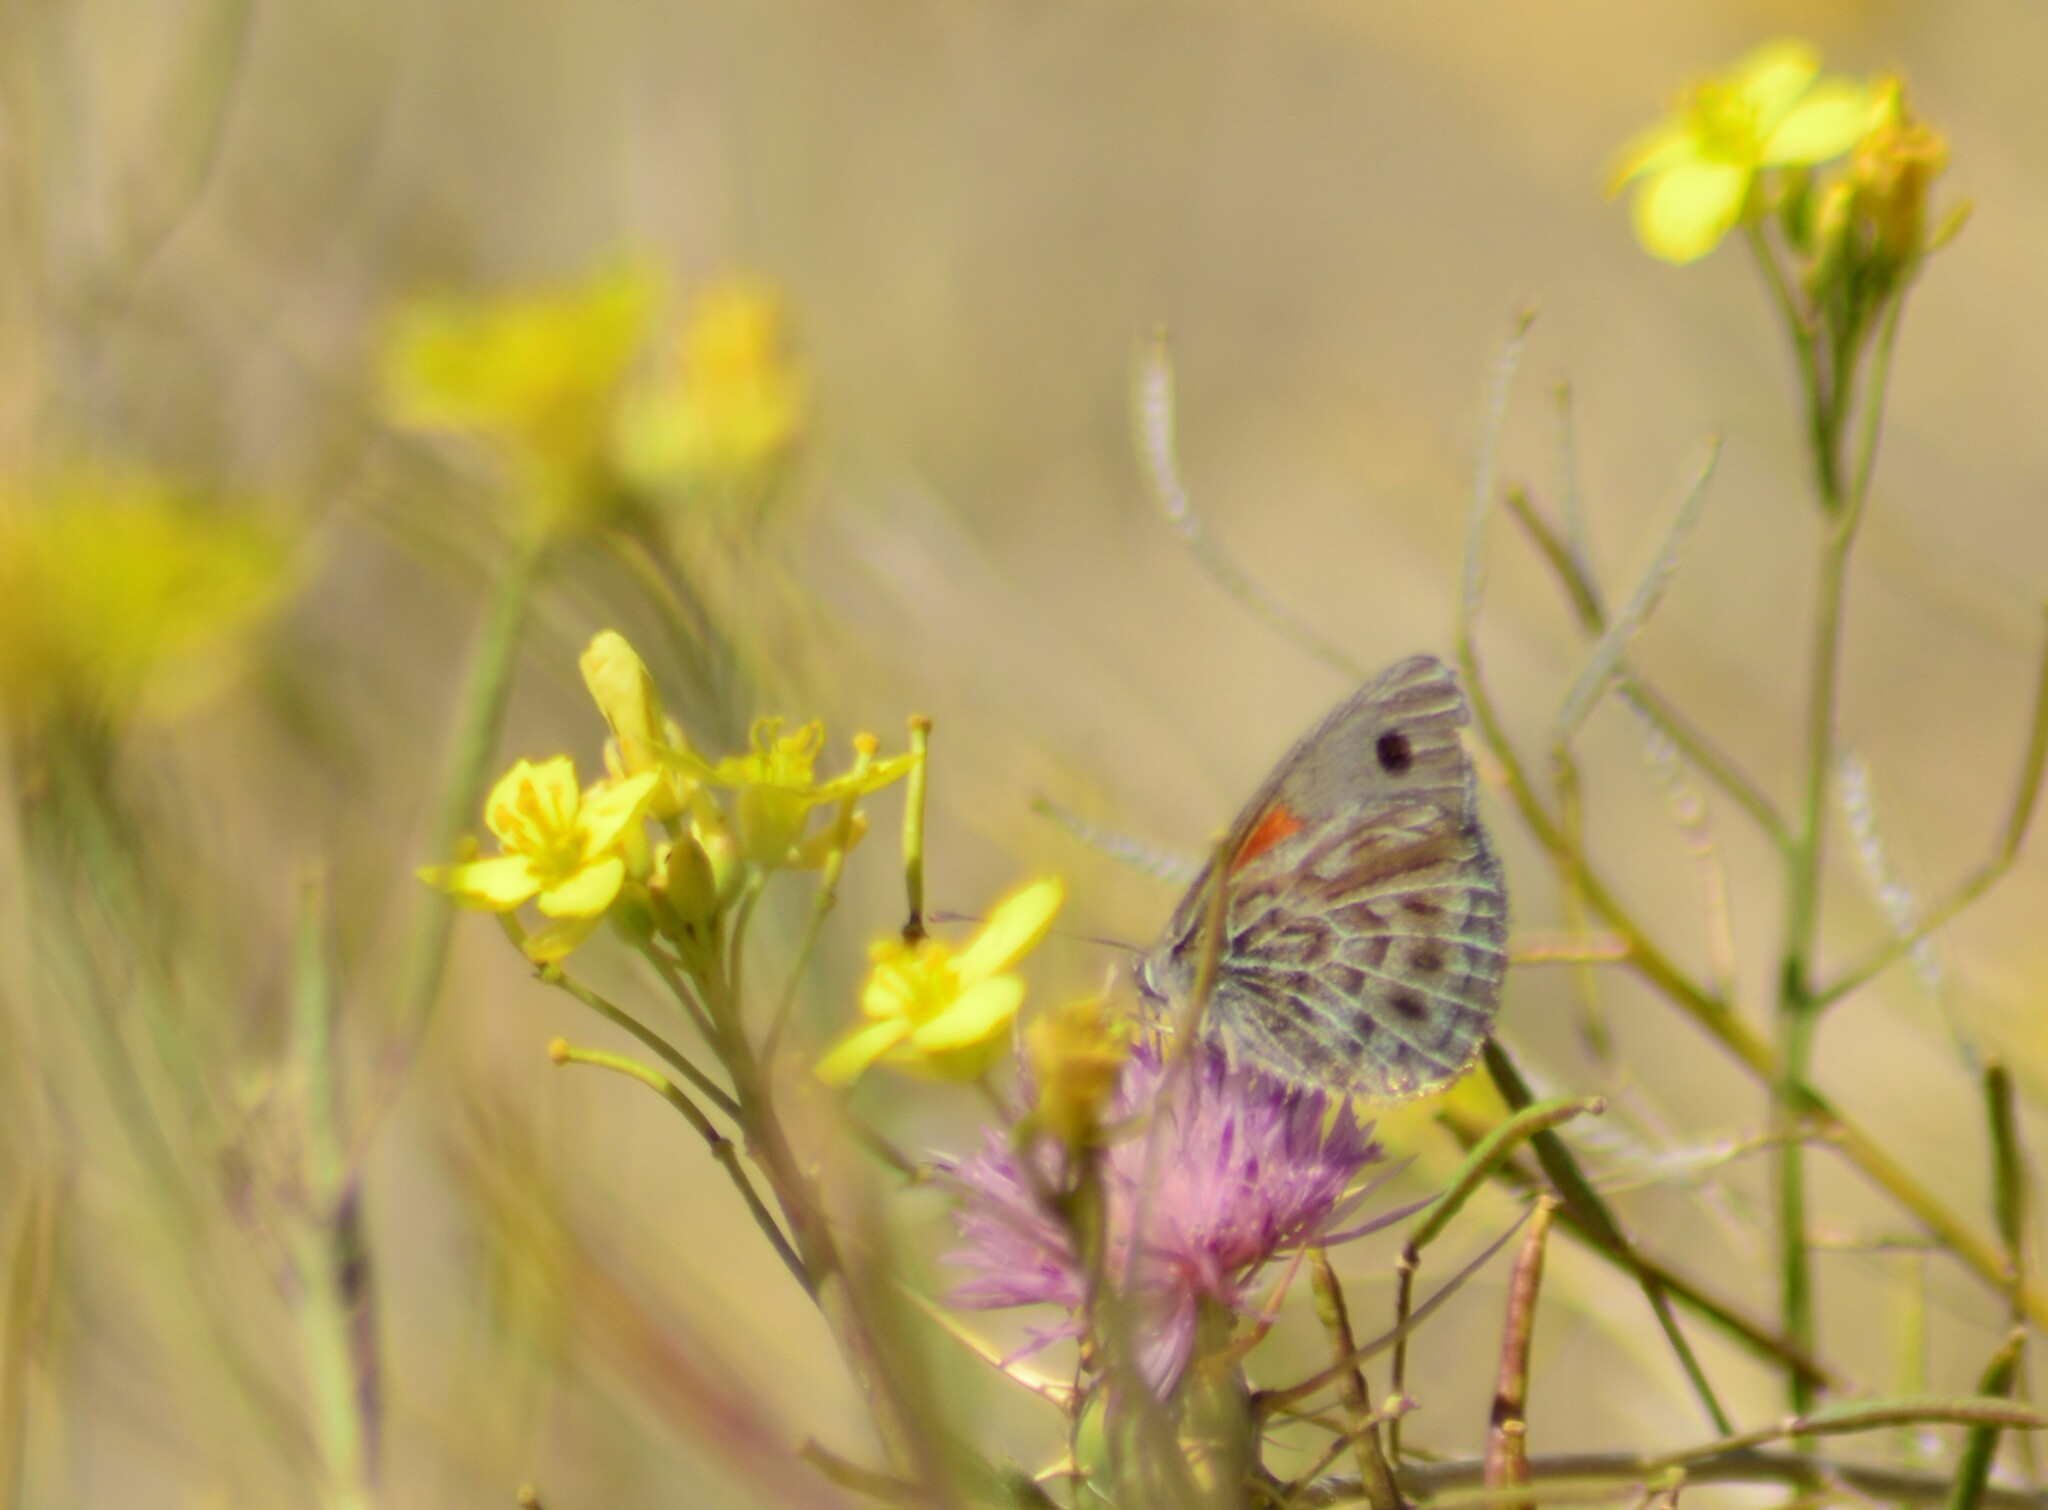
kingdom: Animalia
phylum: Arthropoda
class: Insecta
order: Lepidoptera
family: Nymphalidae
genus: Argyrophorus
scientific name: Argyrophorus argenteus
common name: Silver satyr
